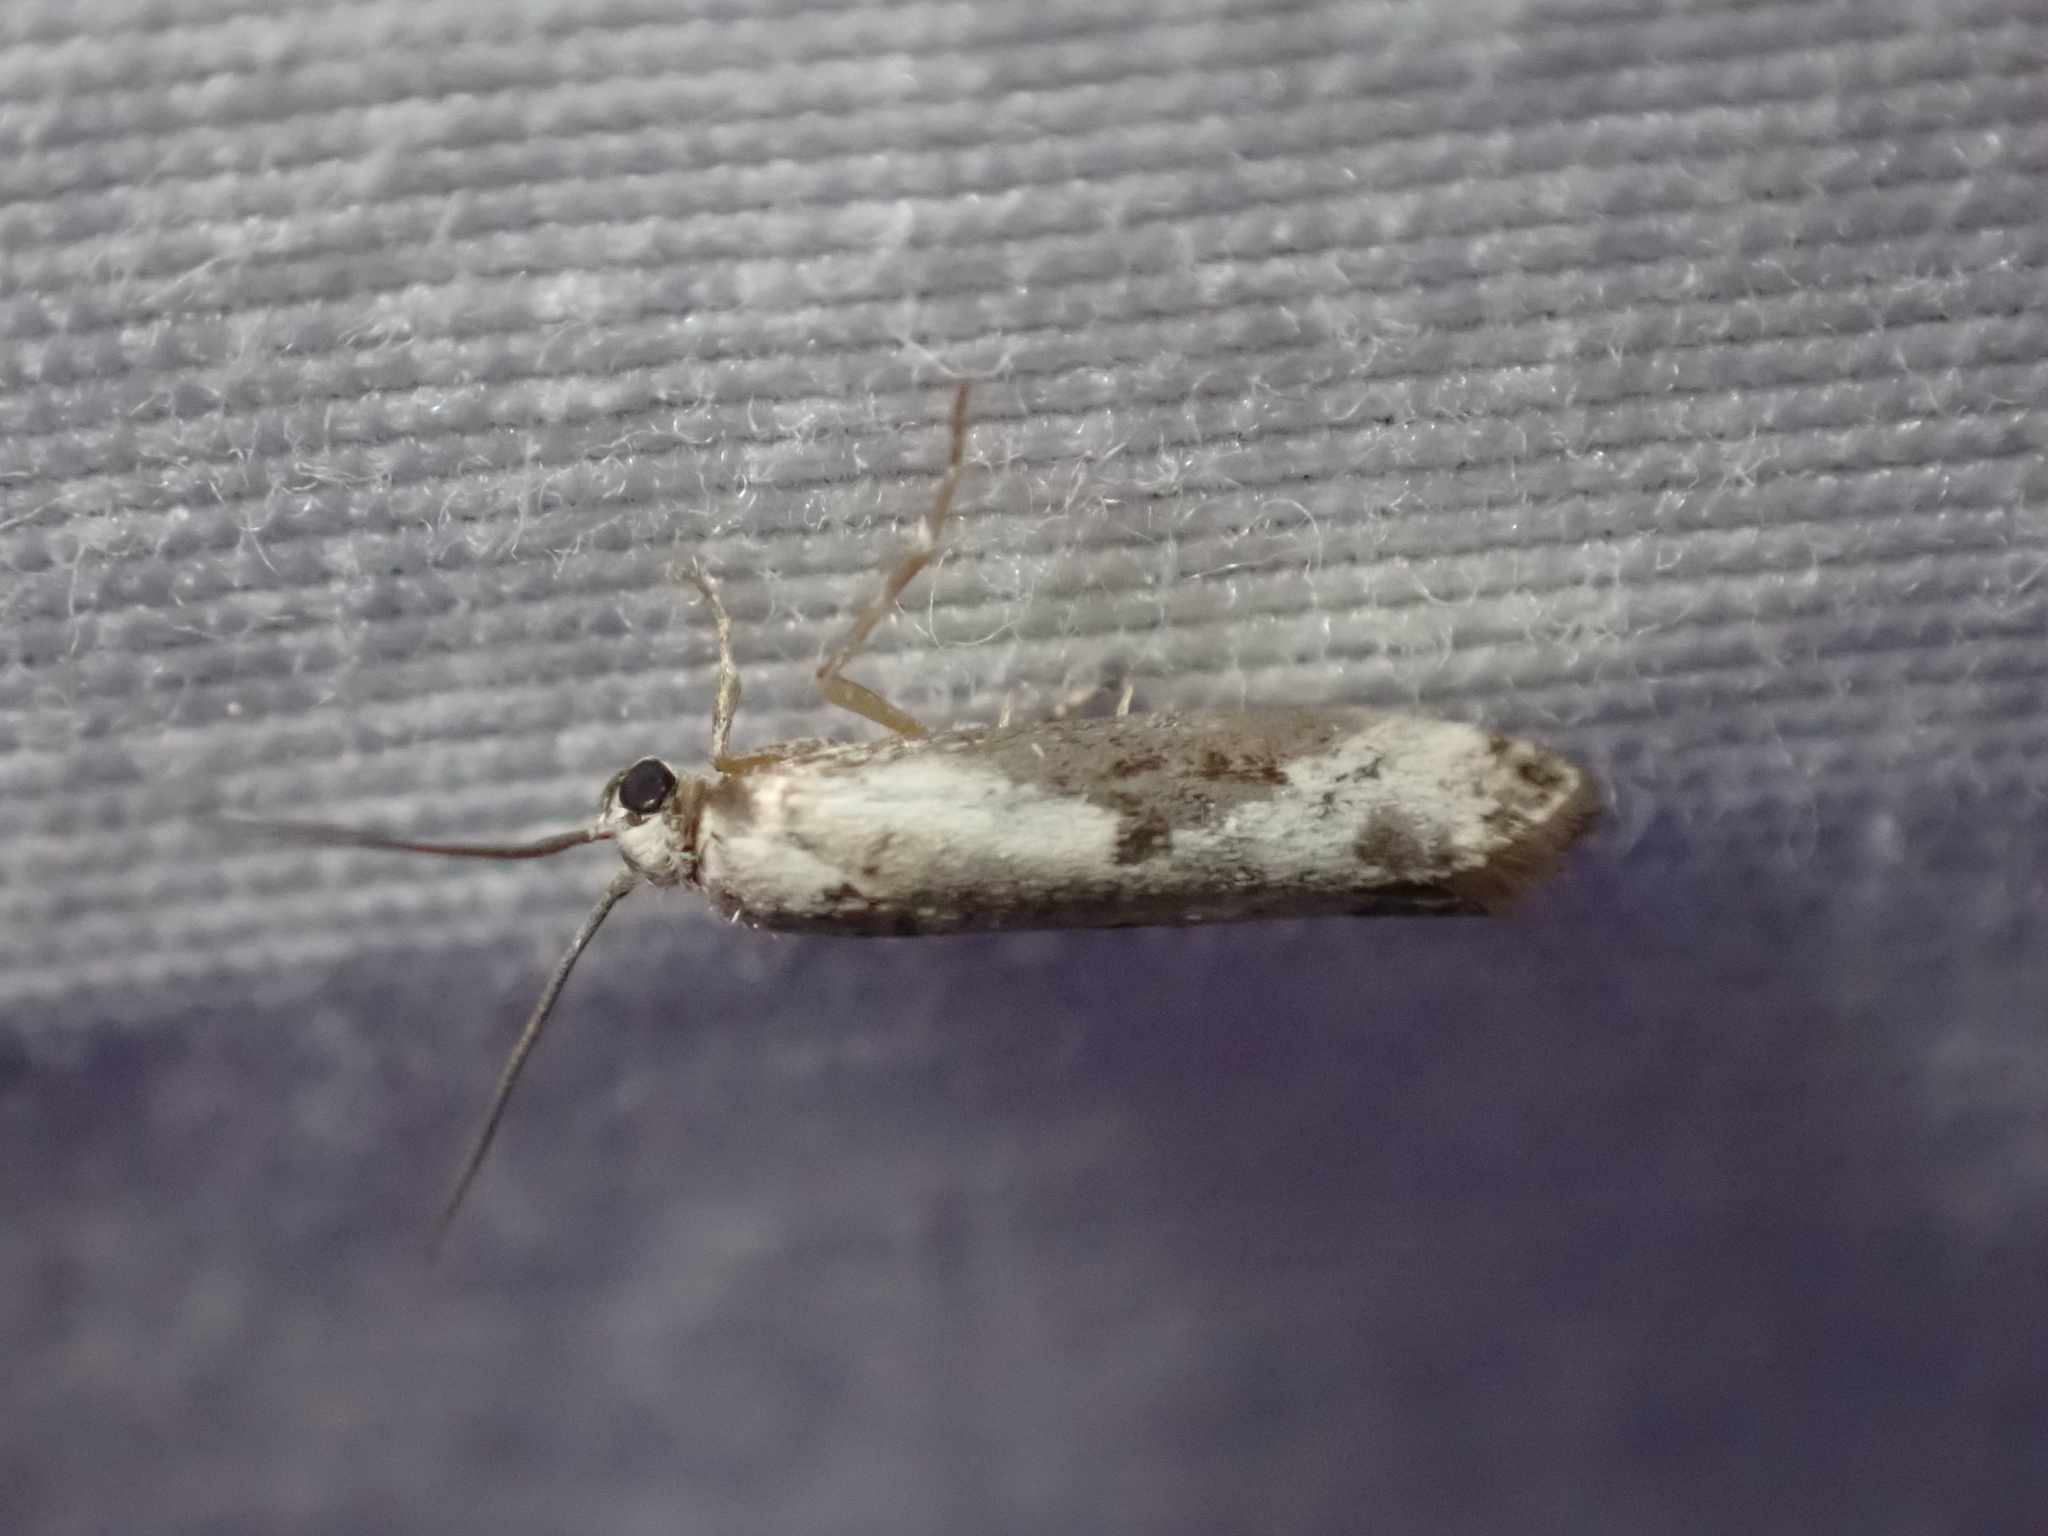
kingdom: Animalia
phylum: Arthropoda
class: Insecta
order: Lepidoptera
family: Praydidae
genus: Prays
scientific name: Prays fraxinella
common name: Ash bud moth
